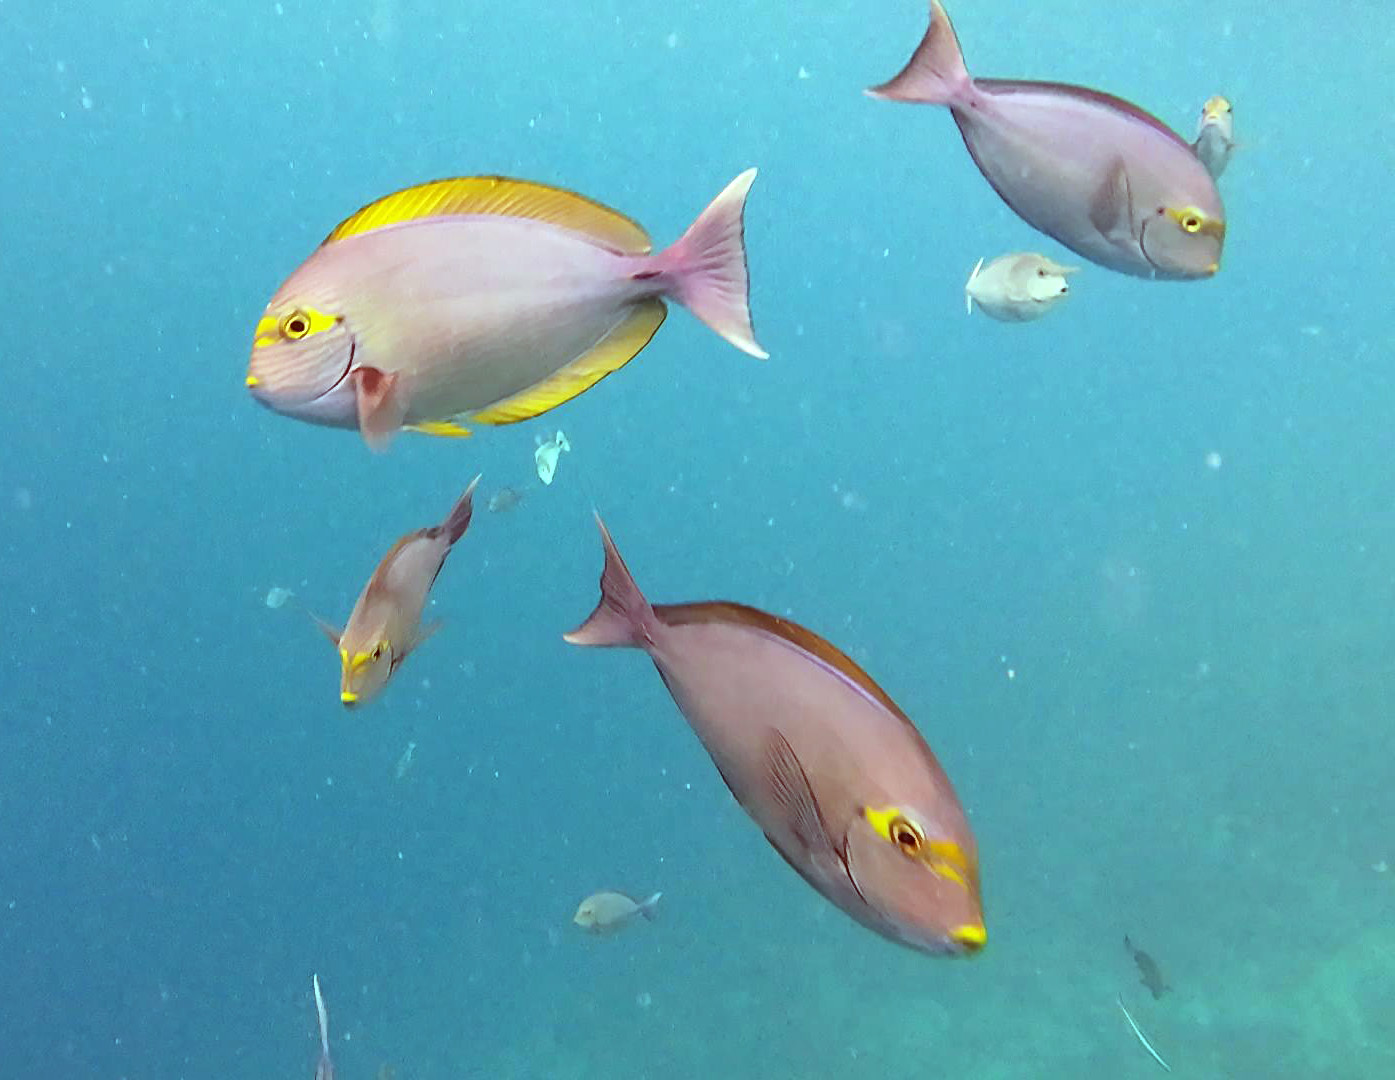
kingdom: Animalia
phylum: Chordata
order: Perciformes
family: Acanthuridae
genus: Acanthurus
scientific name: Acanthurus mata
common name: Bleeker's surgeonfish
